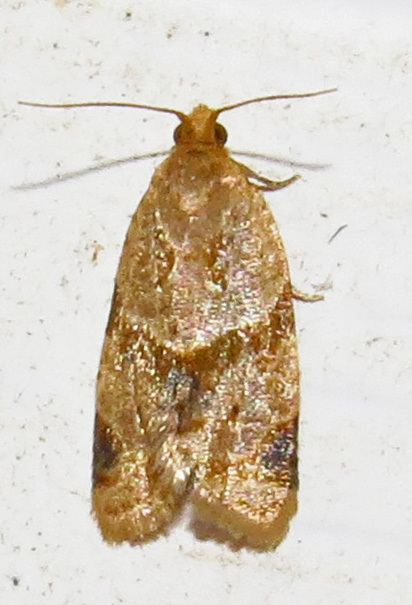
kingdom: Animalia
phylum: Arthropoda
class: Insecta
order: Lepidoptera
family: Tortricidae
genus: Clepsis
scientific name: Clepsis peritana
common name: Garden tortrix
